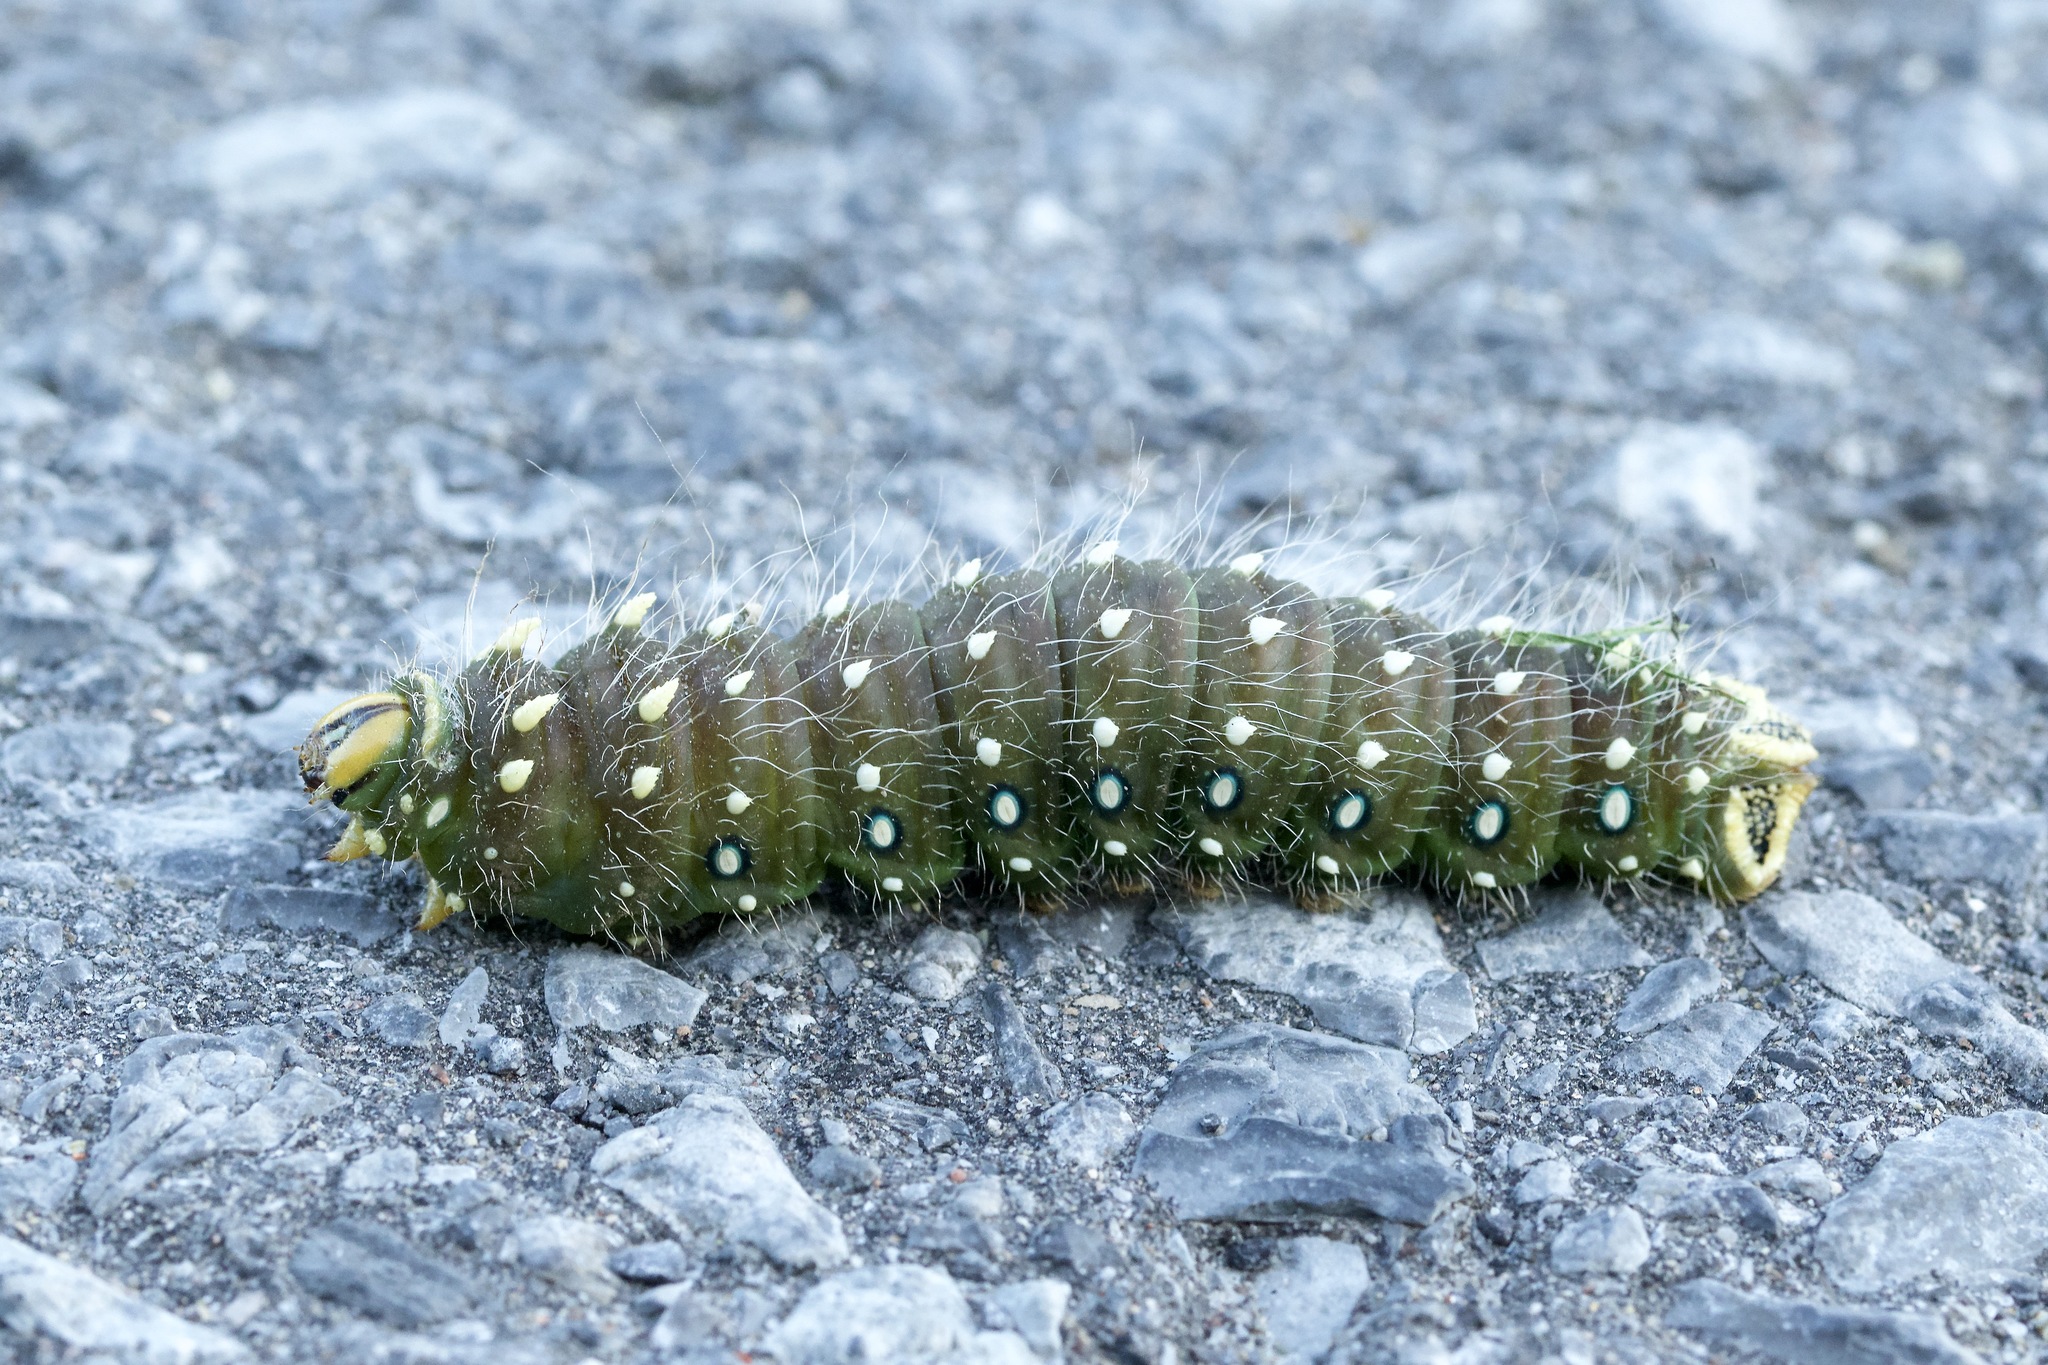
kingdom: Animalia
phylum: Arthropoda
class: Insecta
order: Lepidoptera
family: Saturniidae
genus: Eacles
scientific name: Eacles
